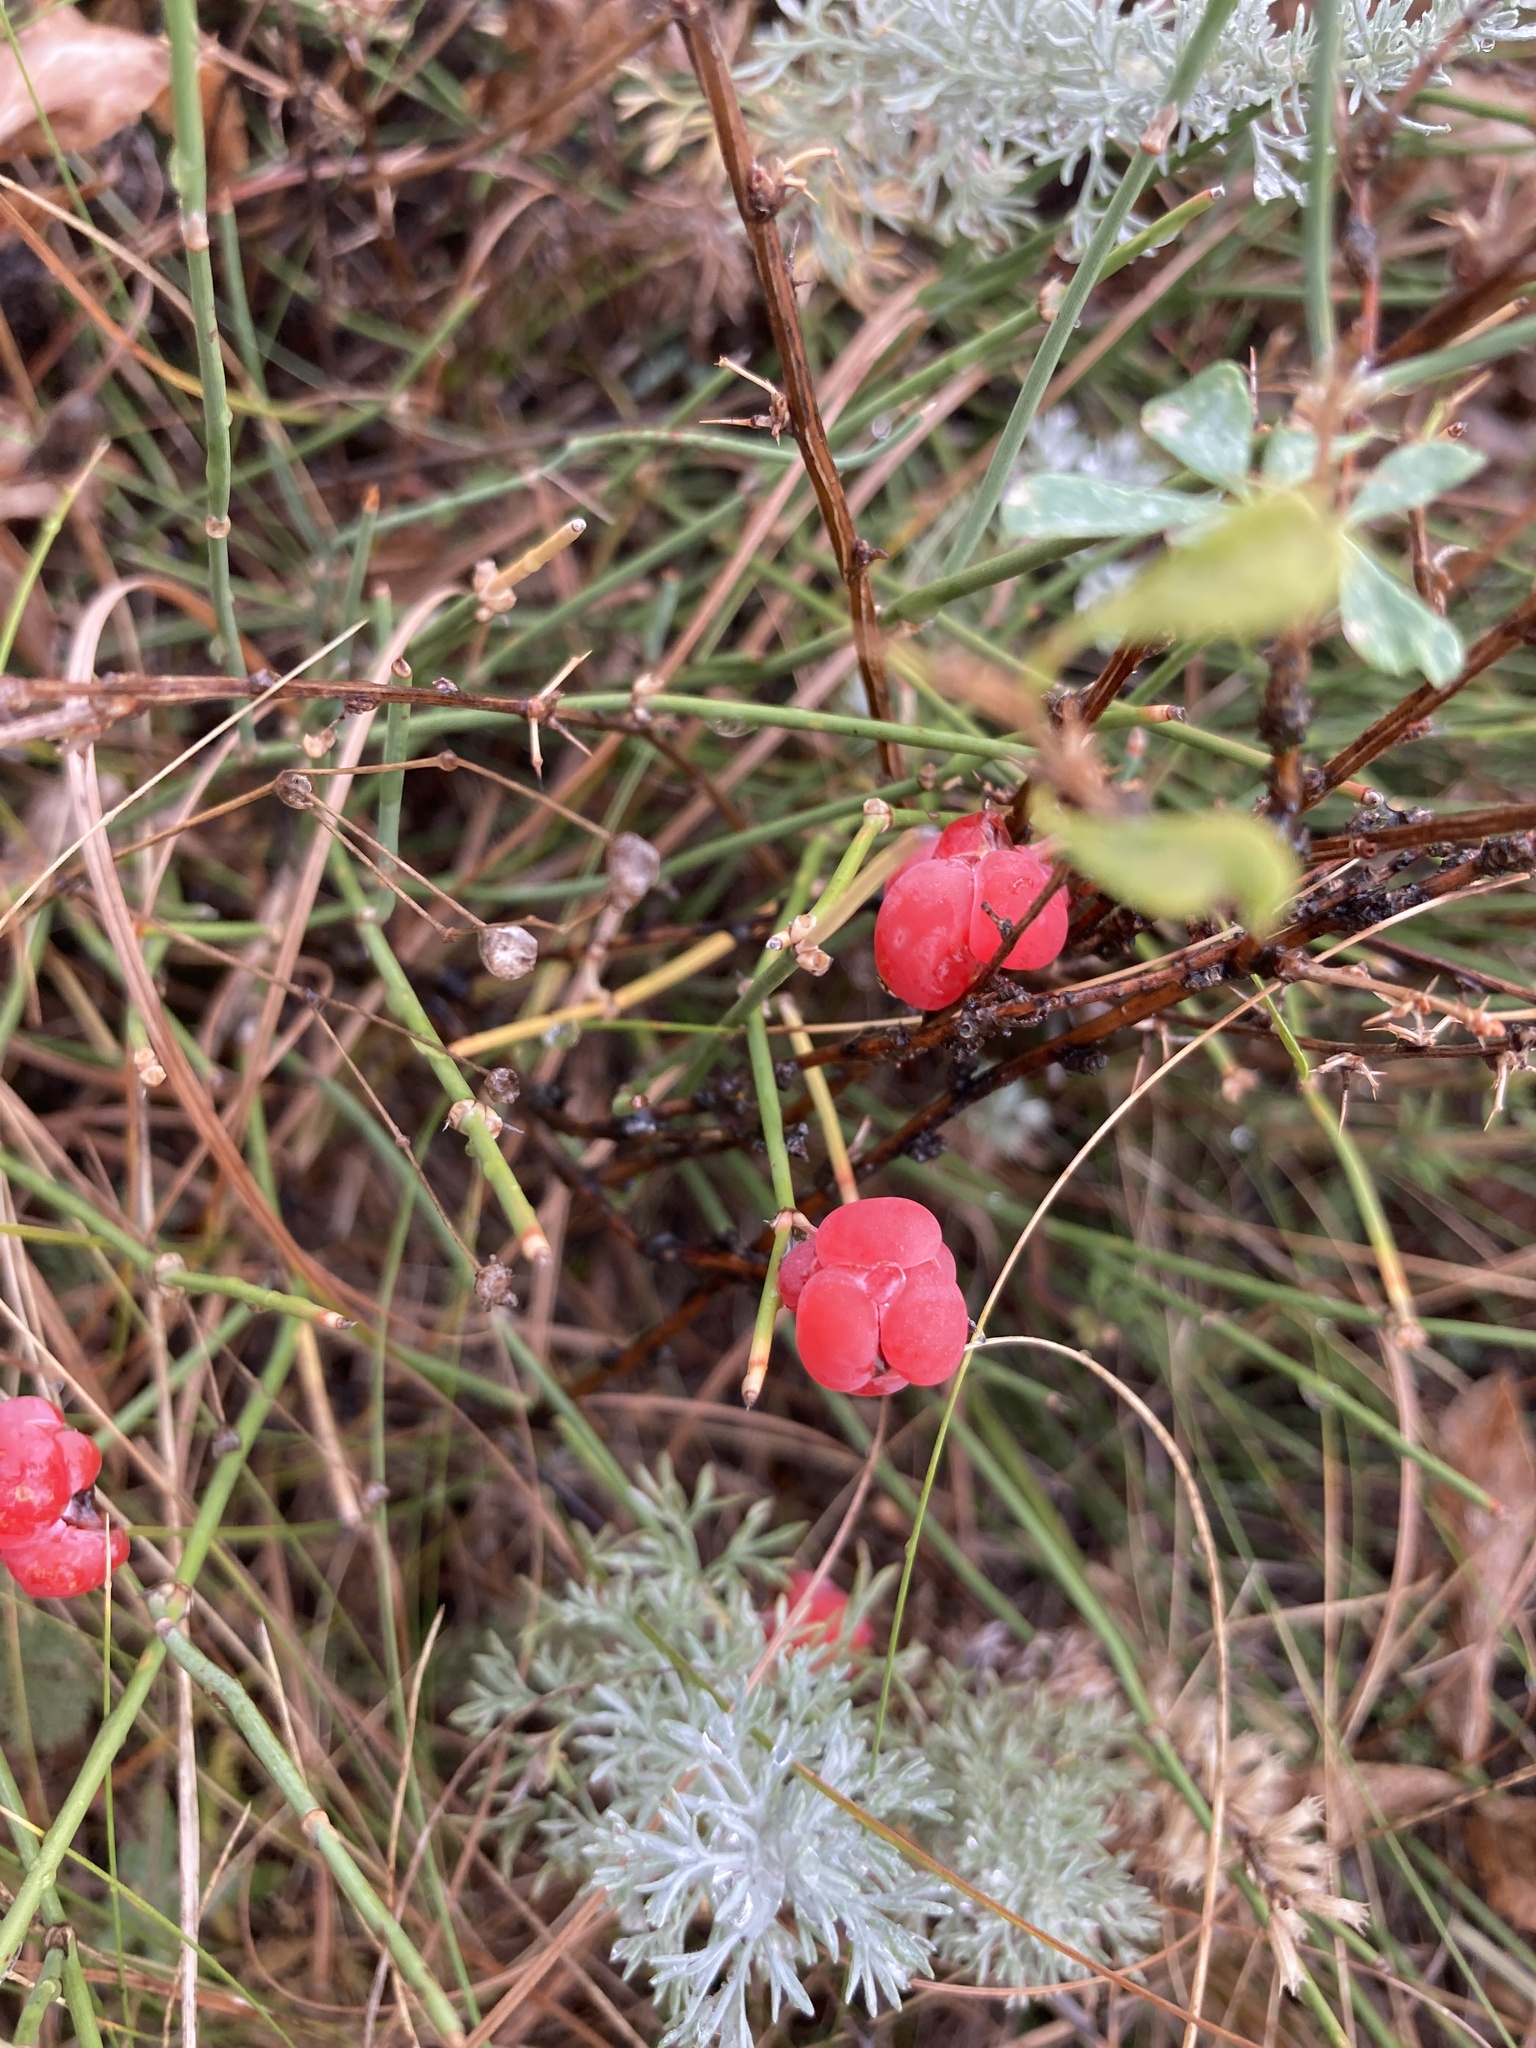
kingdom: Plantae
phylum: Tracheophyta
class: Gnetopsida
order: Ephedrales
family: Ephedraceae
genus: Ephedra
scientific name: Ephedra distachya
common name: Sea grape
